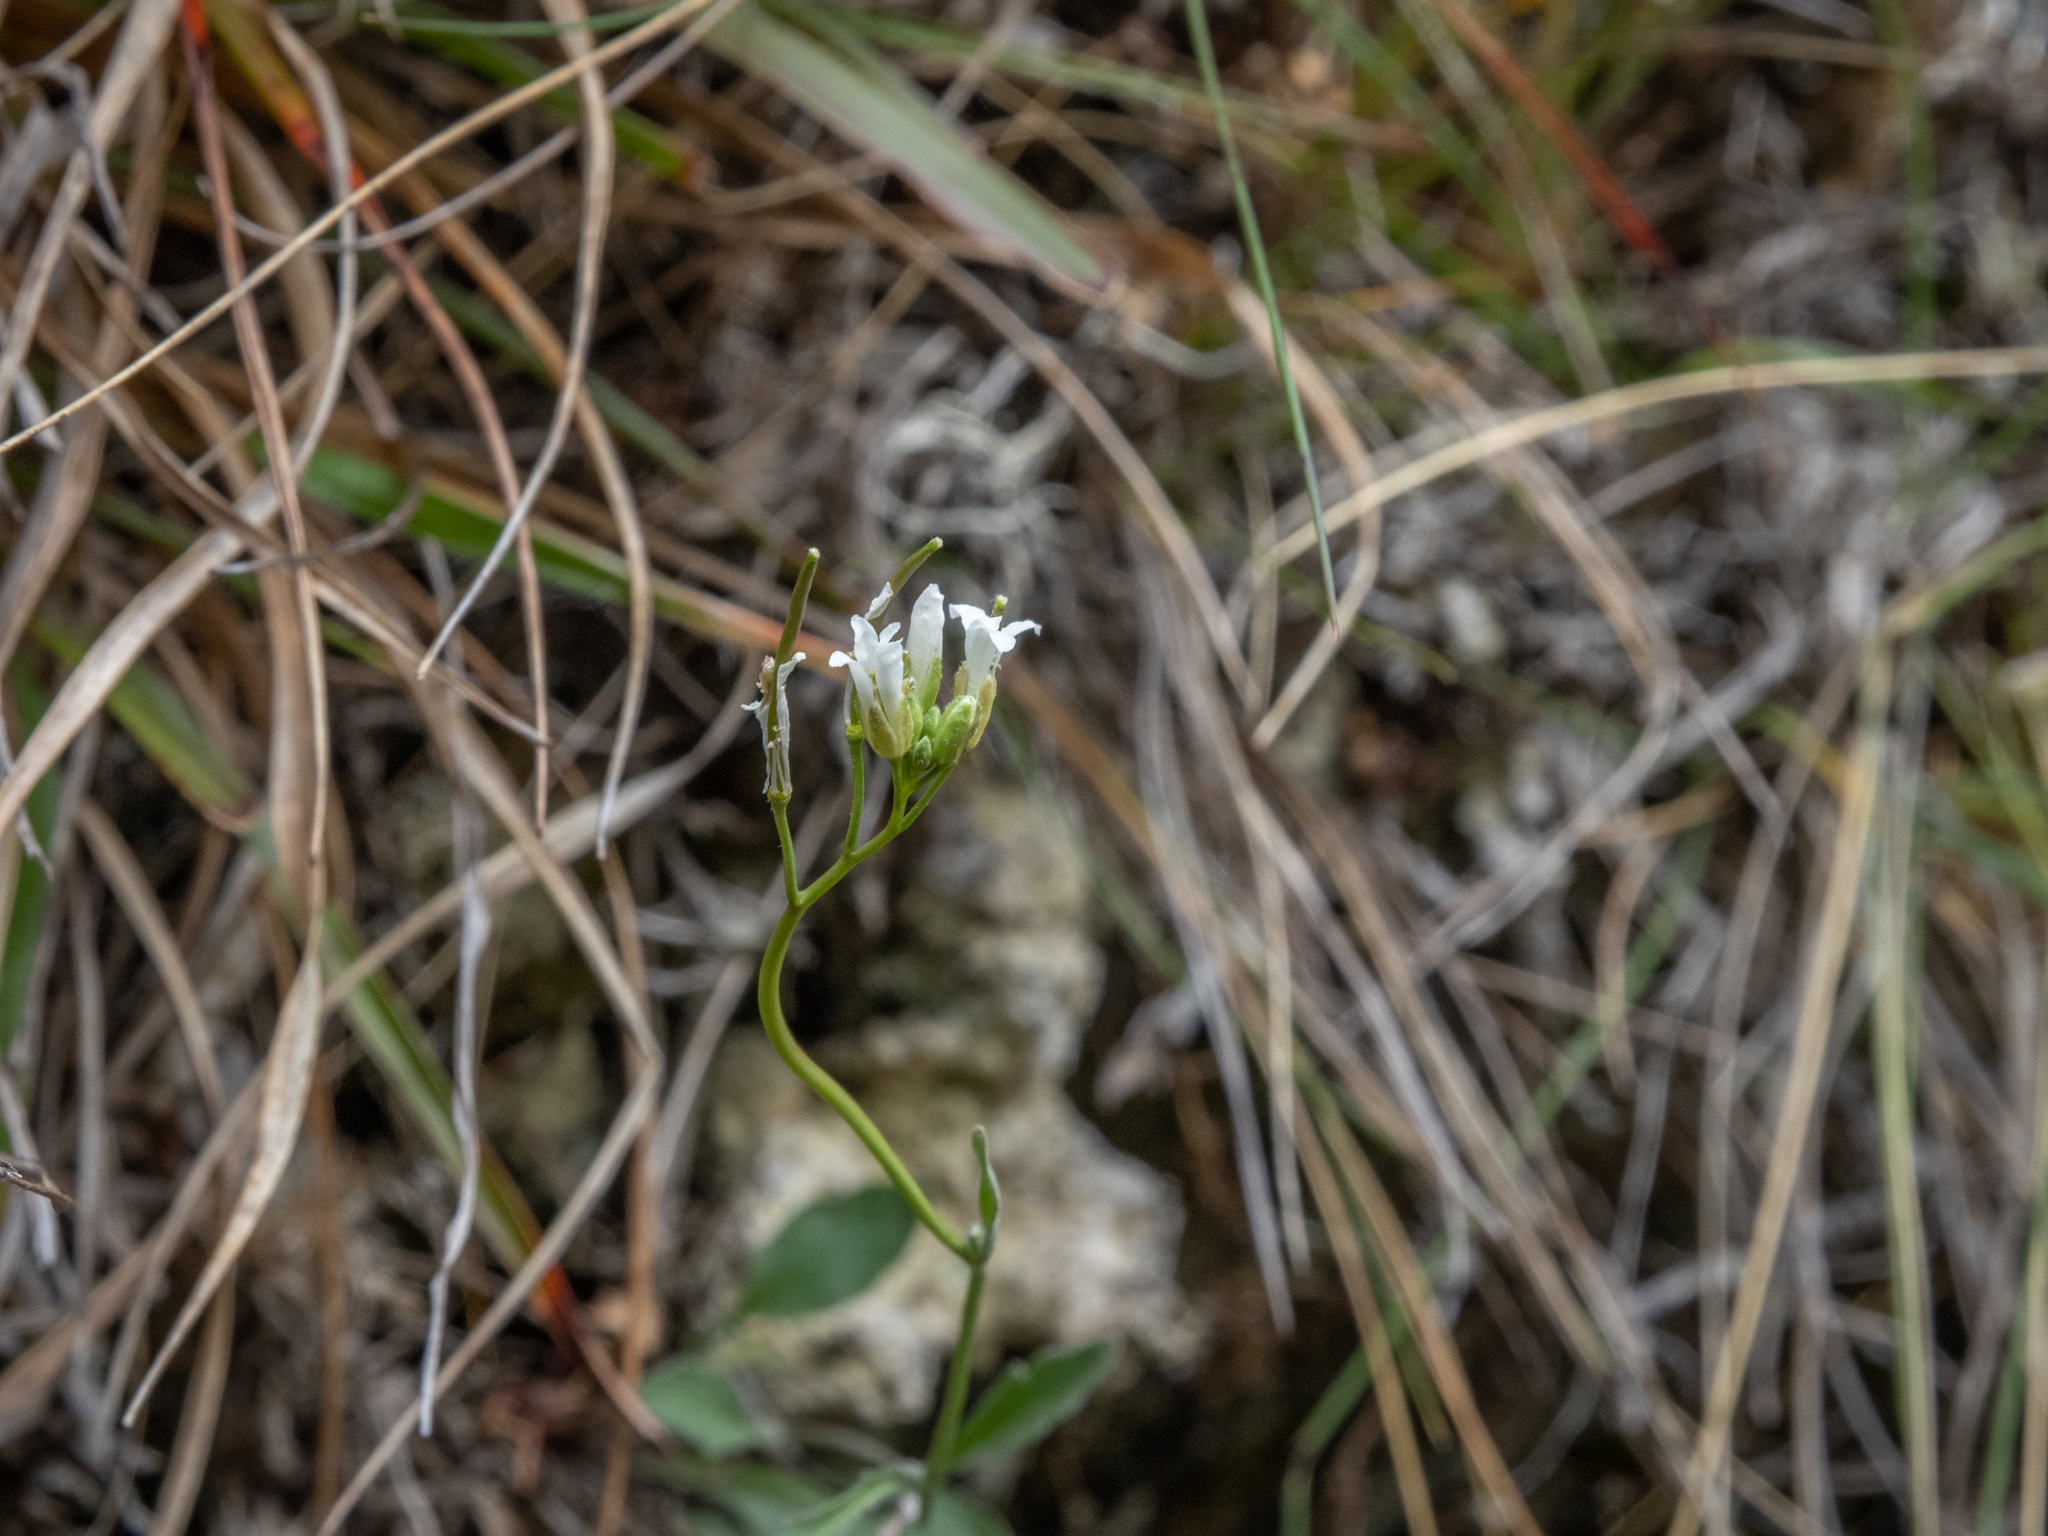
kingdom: Plantae
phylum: Tracheophyta
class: Magnoliopsida
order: Brassicales
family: Brassicaceae
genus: Pachycladon
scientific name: Pachycladon cheesemanii
